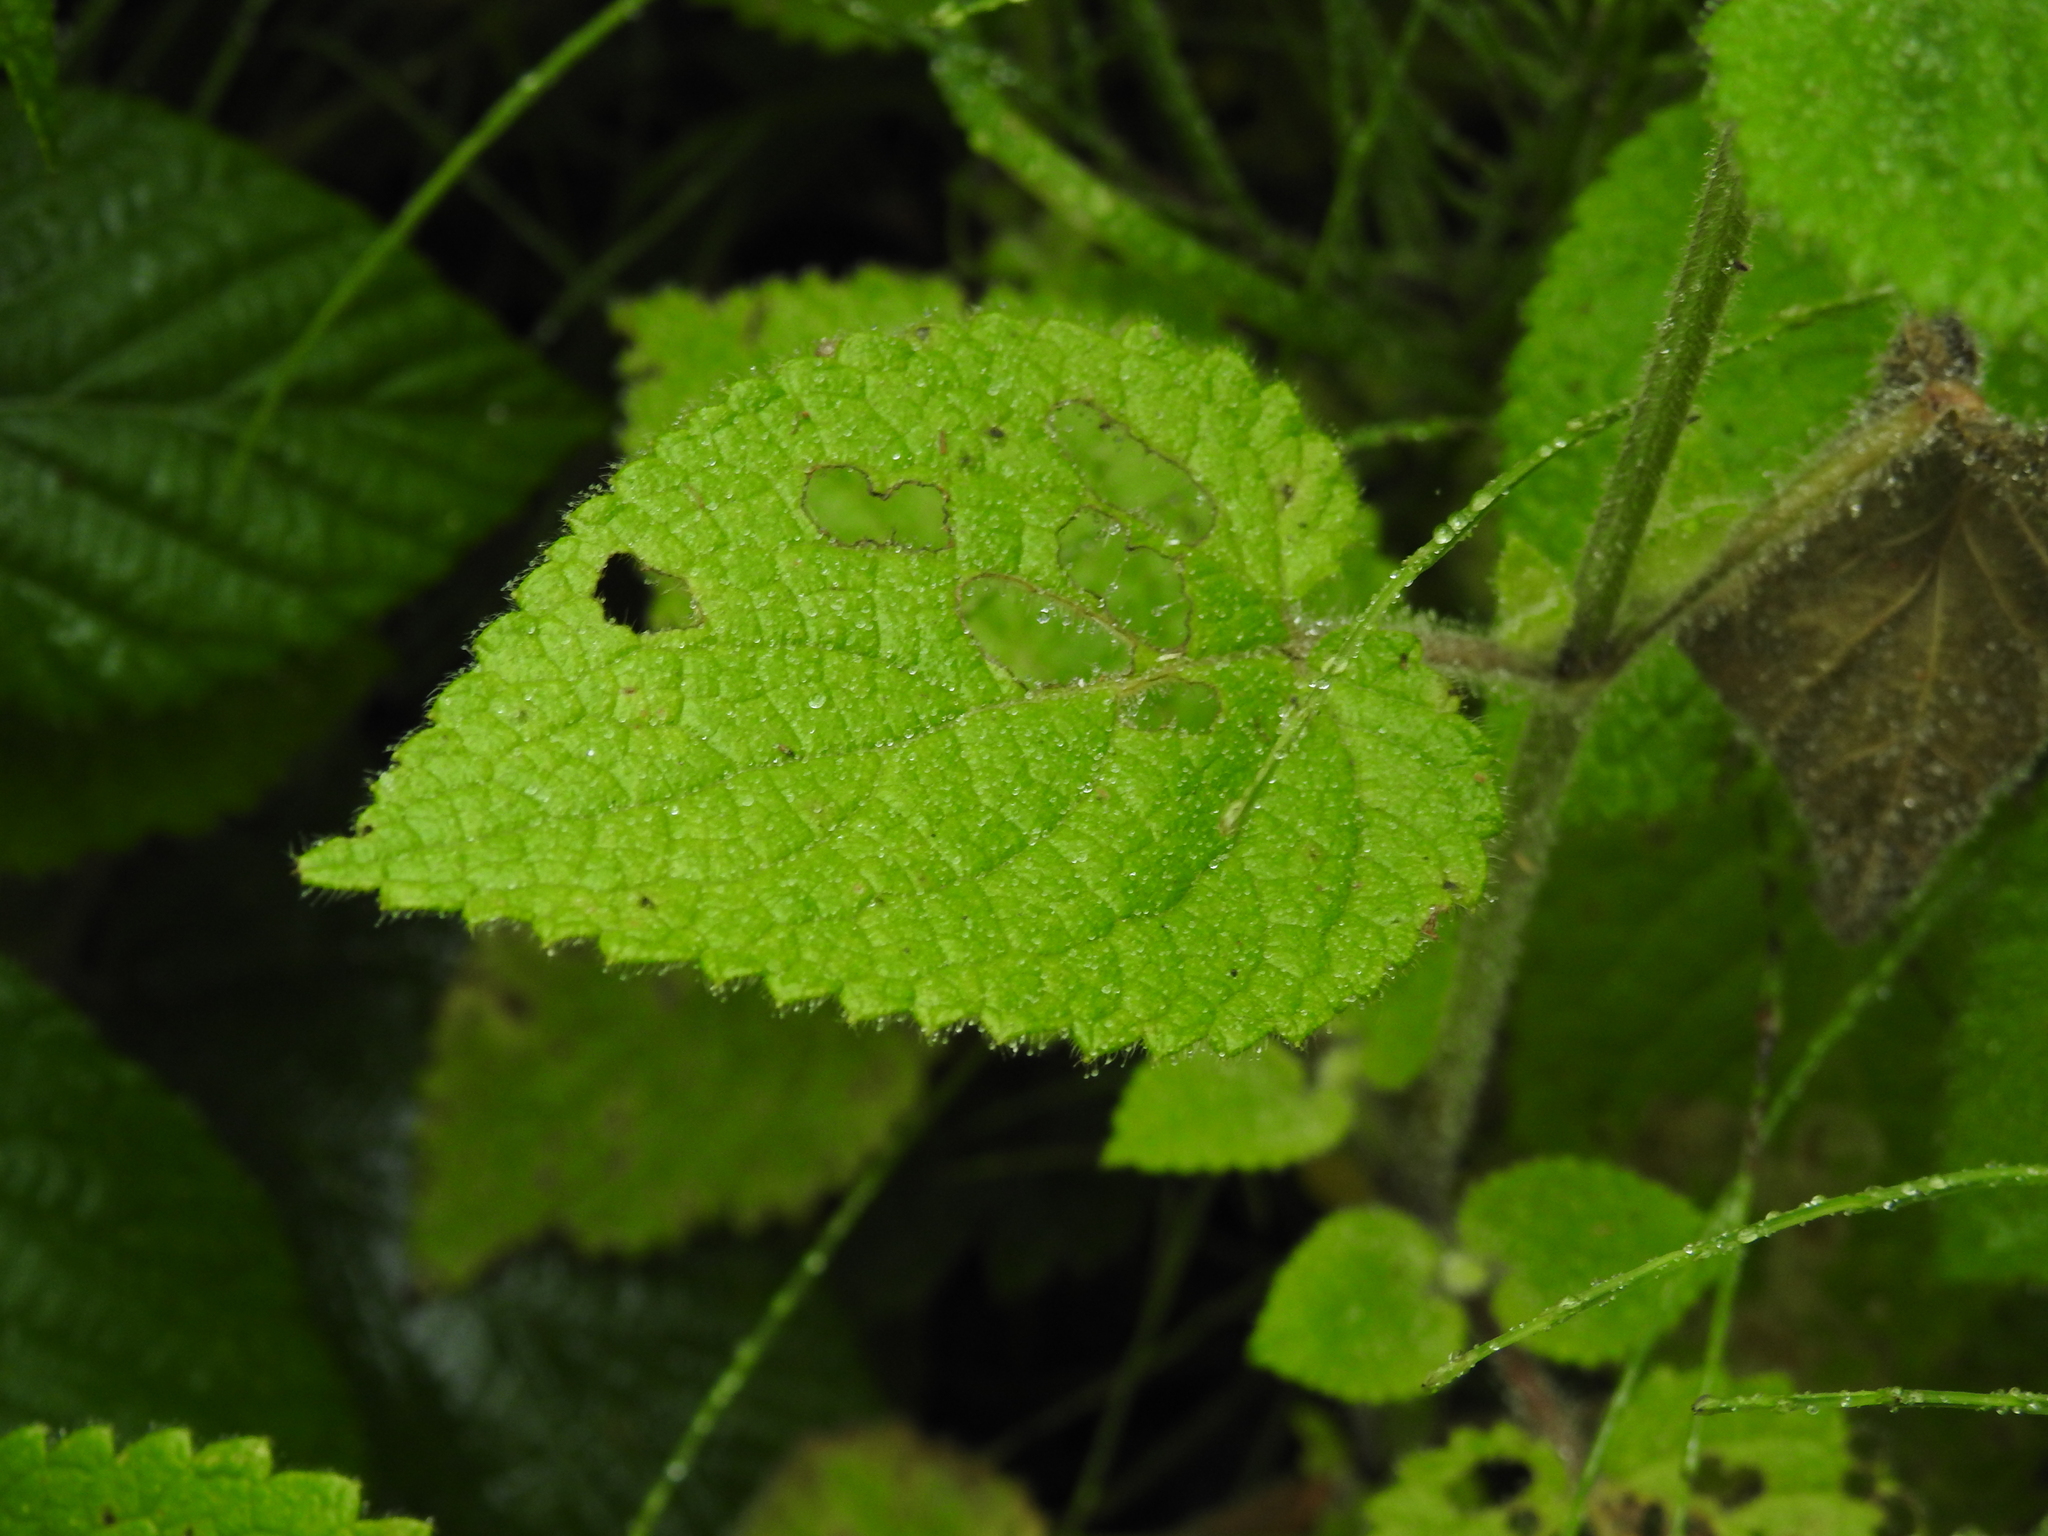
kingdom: Plantae
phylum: Tracheophyta
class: Magnoliopsida
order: Lamiales
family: Lamiaceae
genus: Stachys
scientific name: Stachys sylvatica
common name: Hedge woundwort
